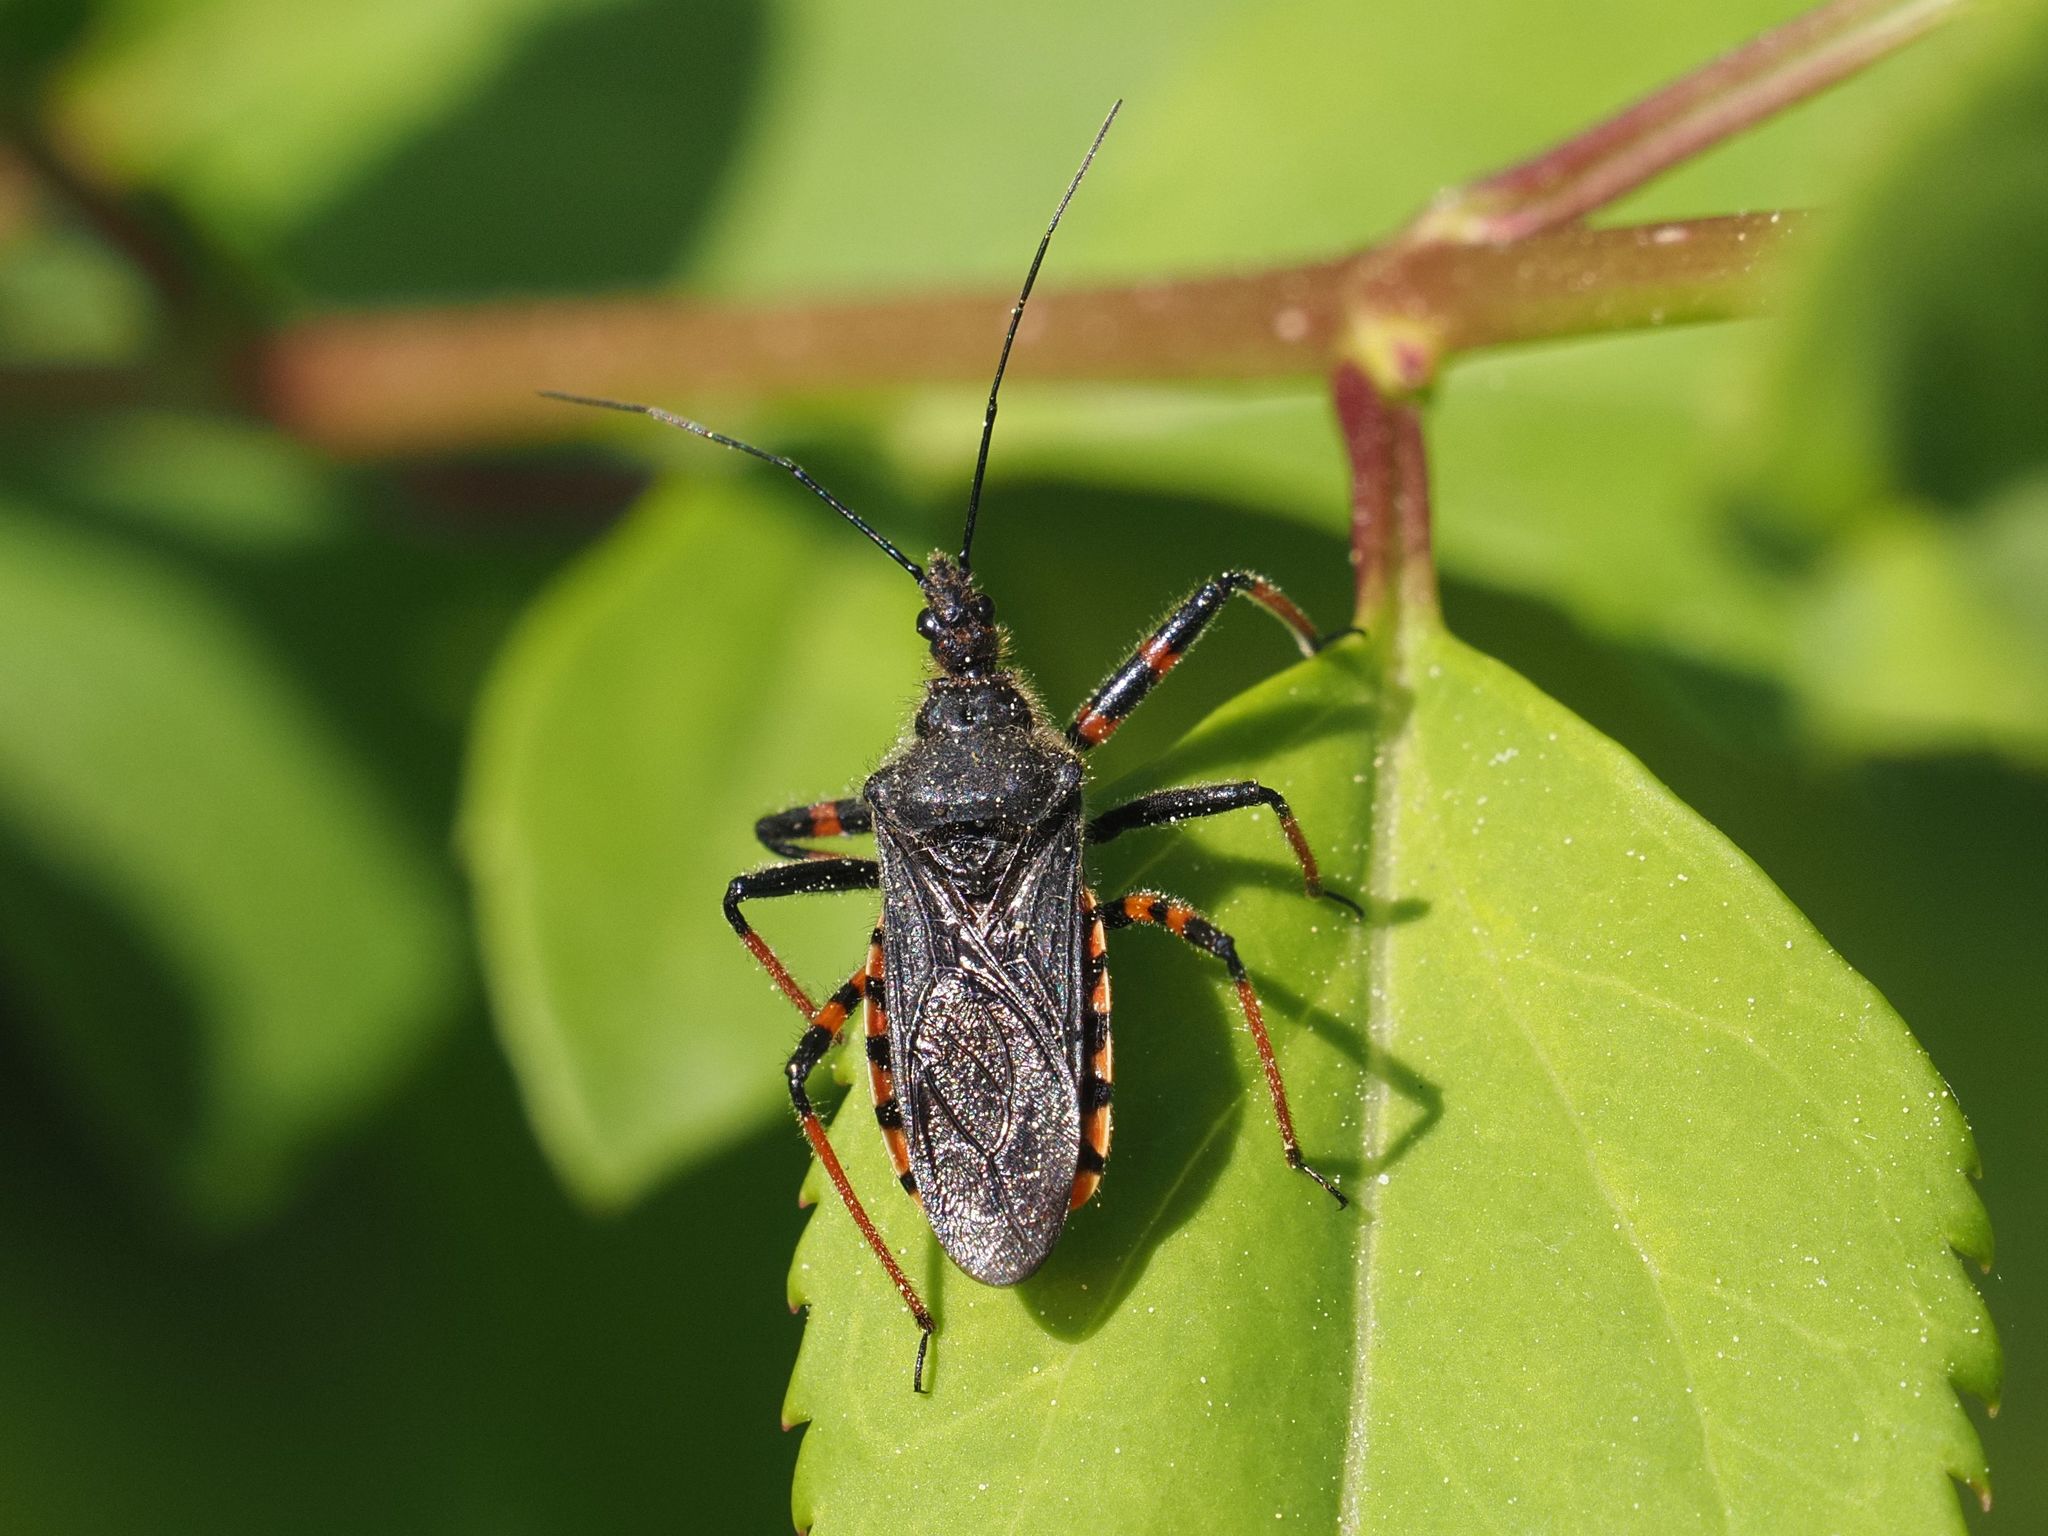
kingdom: Animalia
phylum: Arthropoda
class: Insecta
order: Hemiptera
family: Reduviidae
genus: Rhynocoris
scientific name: Rhynocoris annulatus
